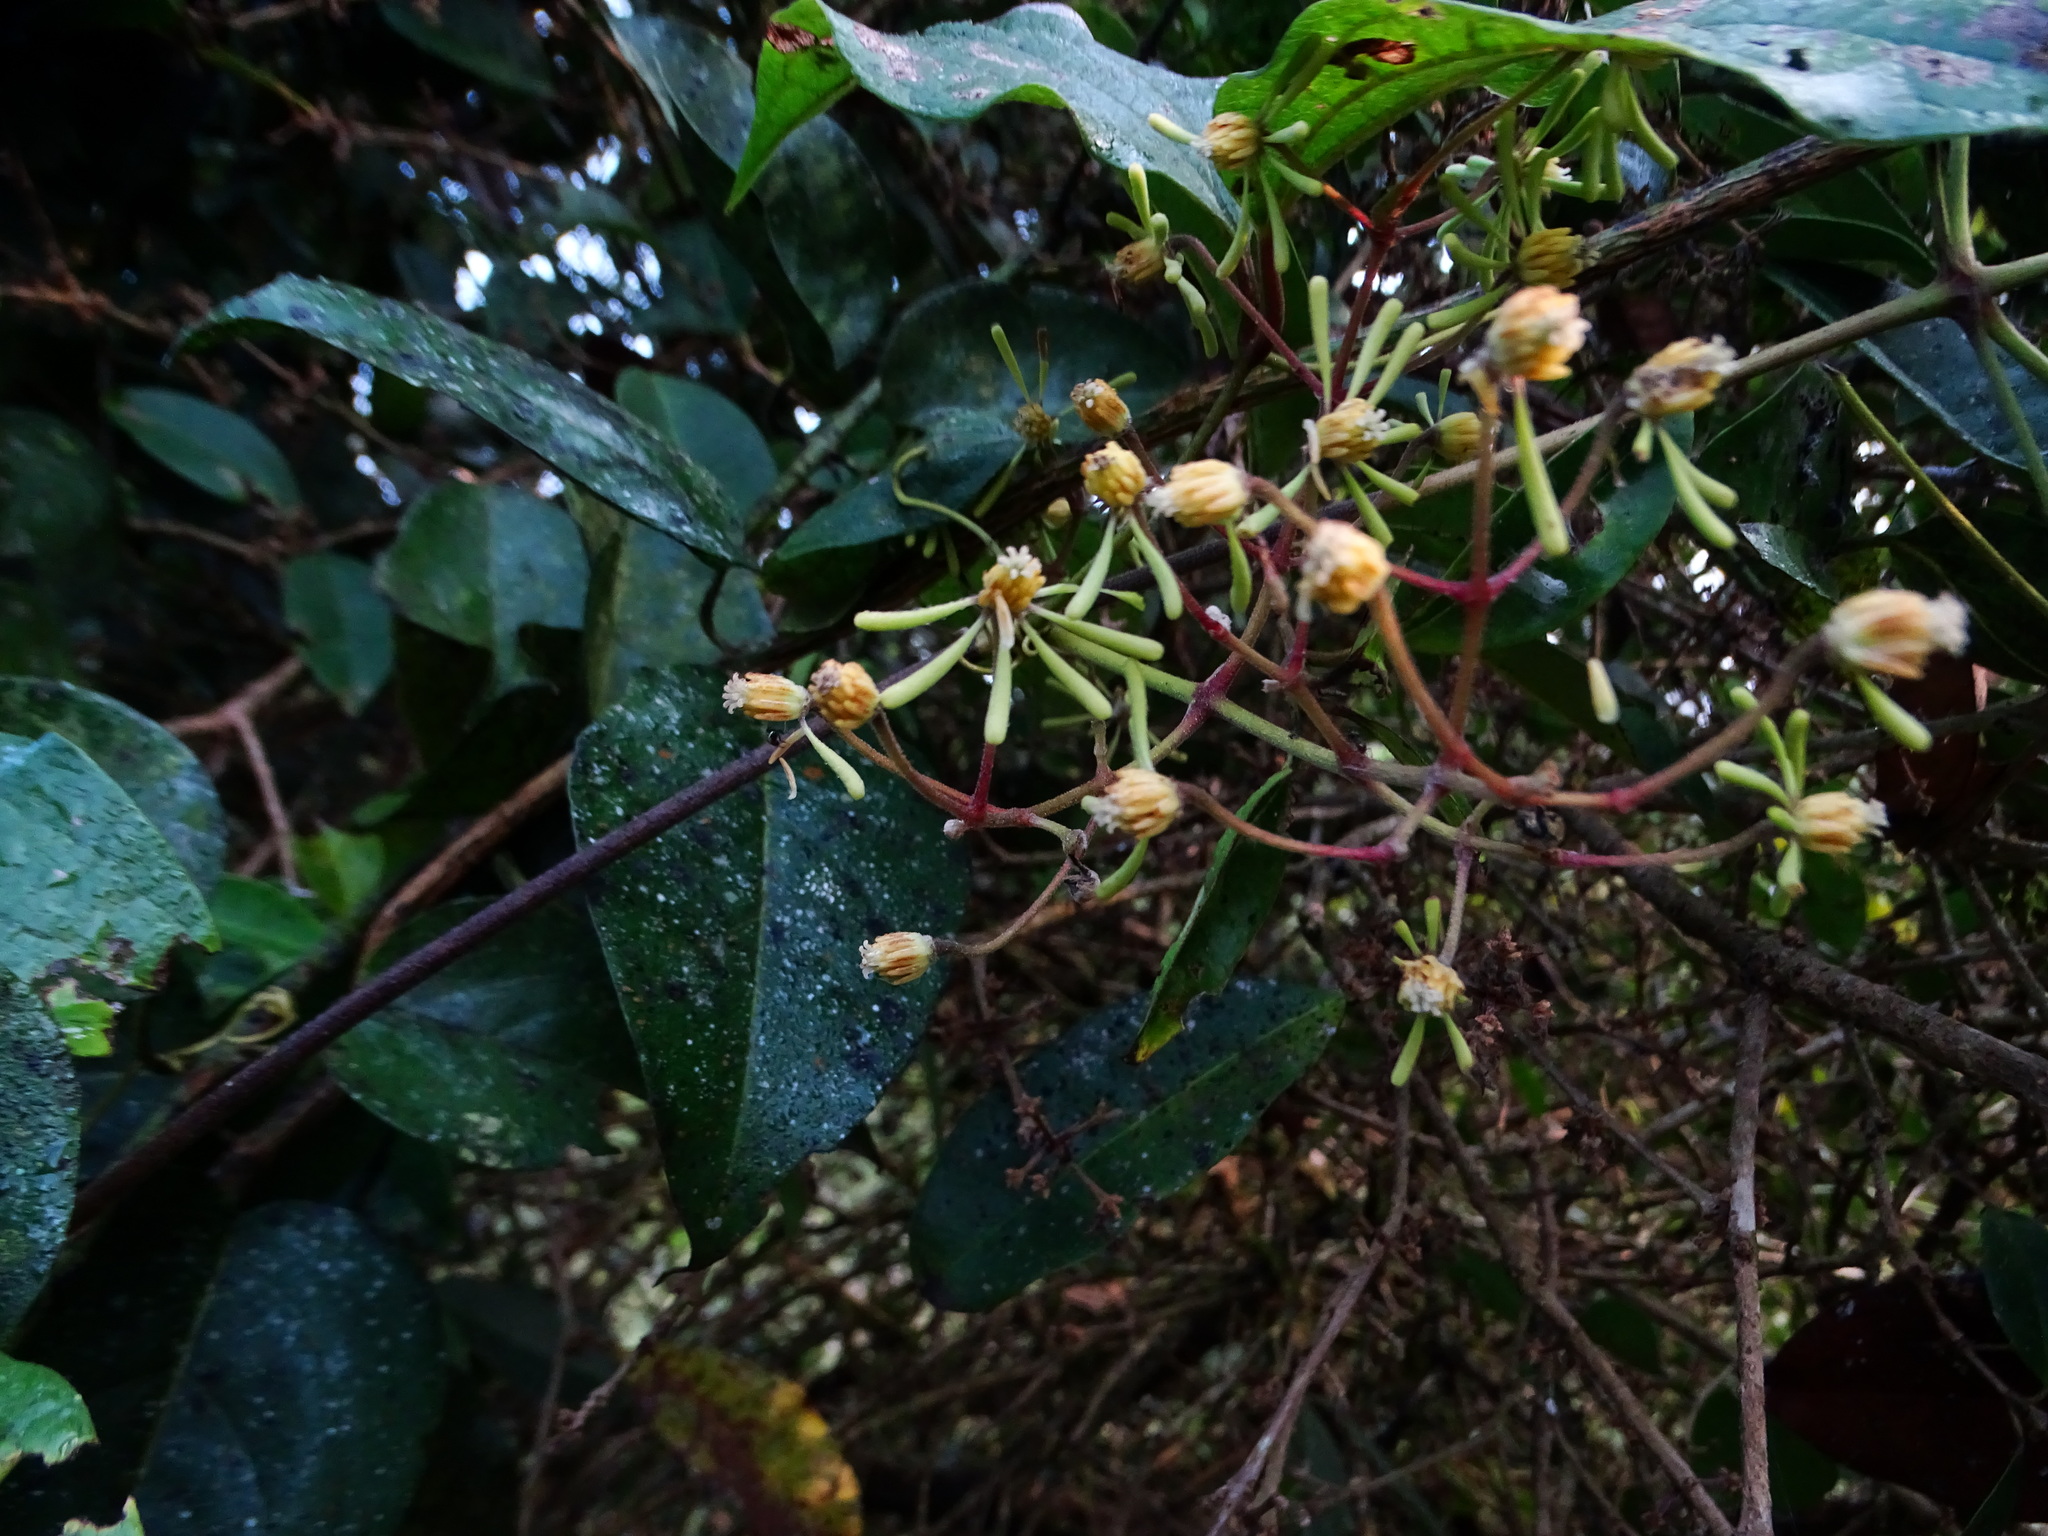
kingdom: Plantae
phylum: Tracheophyta
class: Magnoliopsida
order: Ranunculales
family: Ranunculaceae
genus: Clematis
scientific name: Clematis zeylanica
